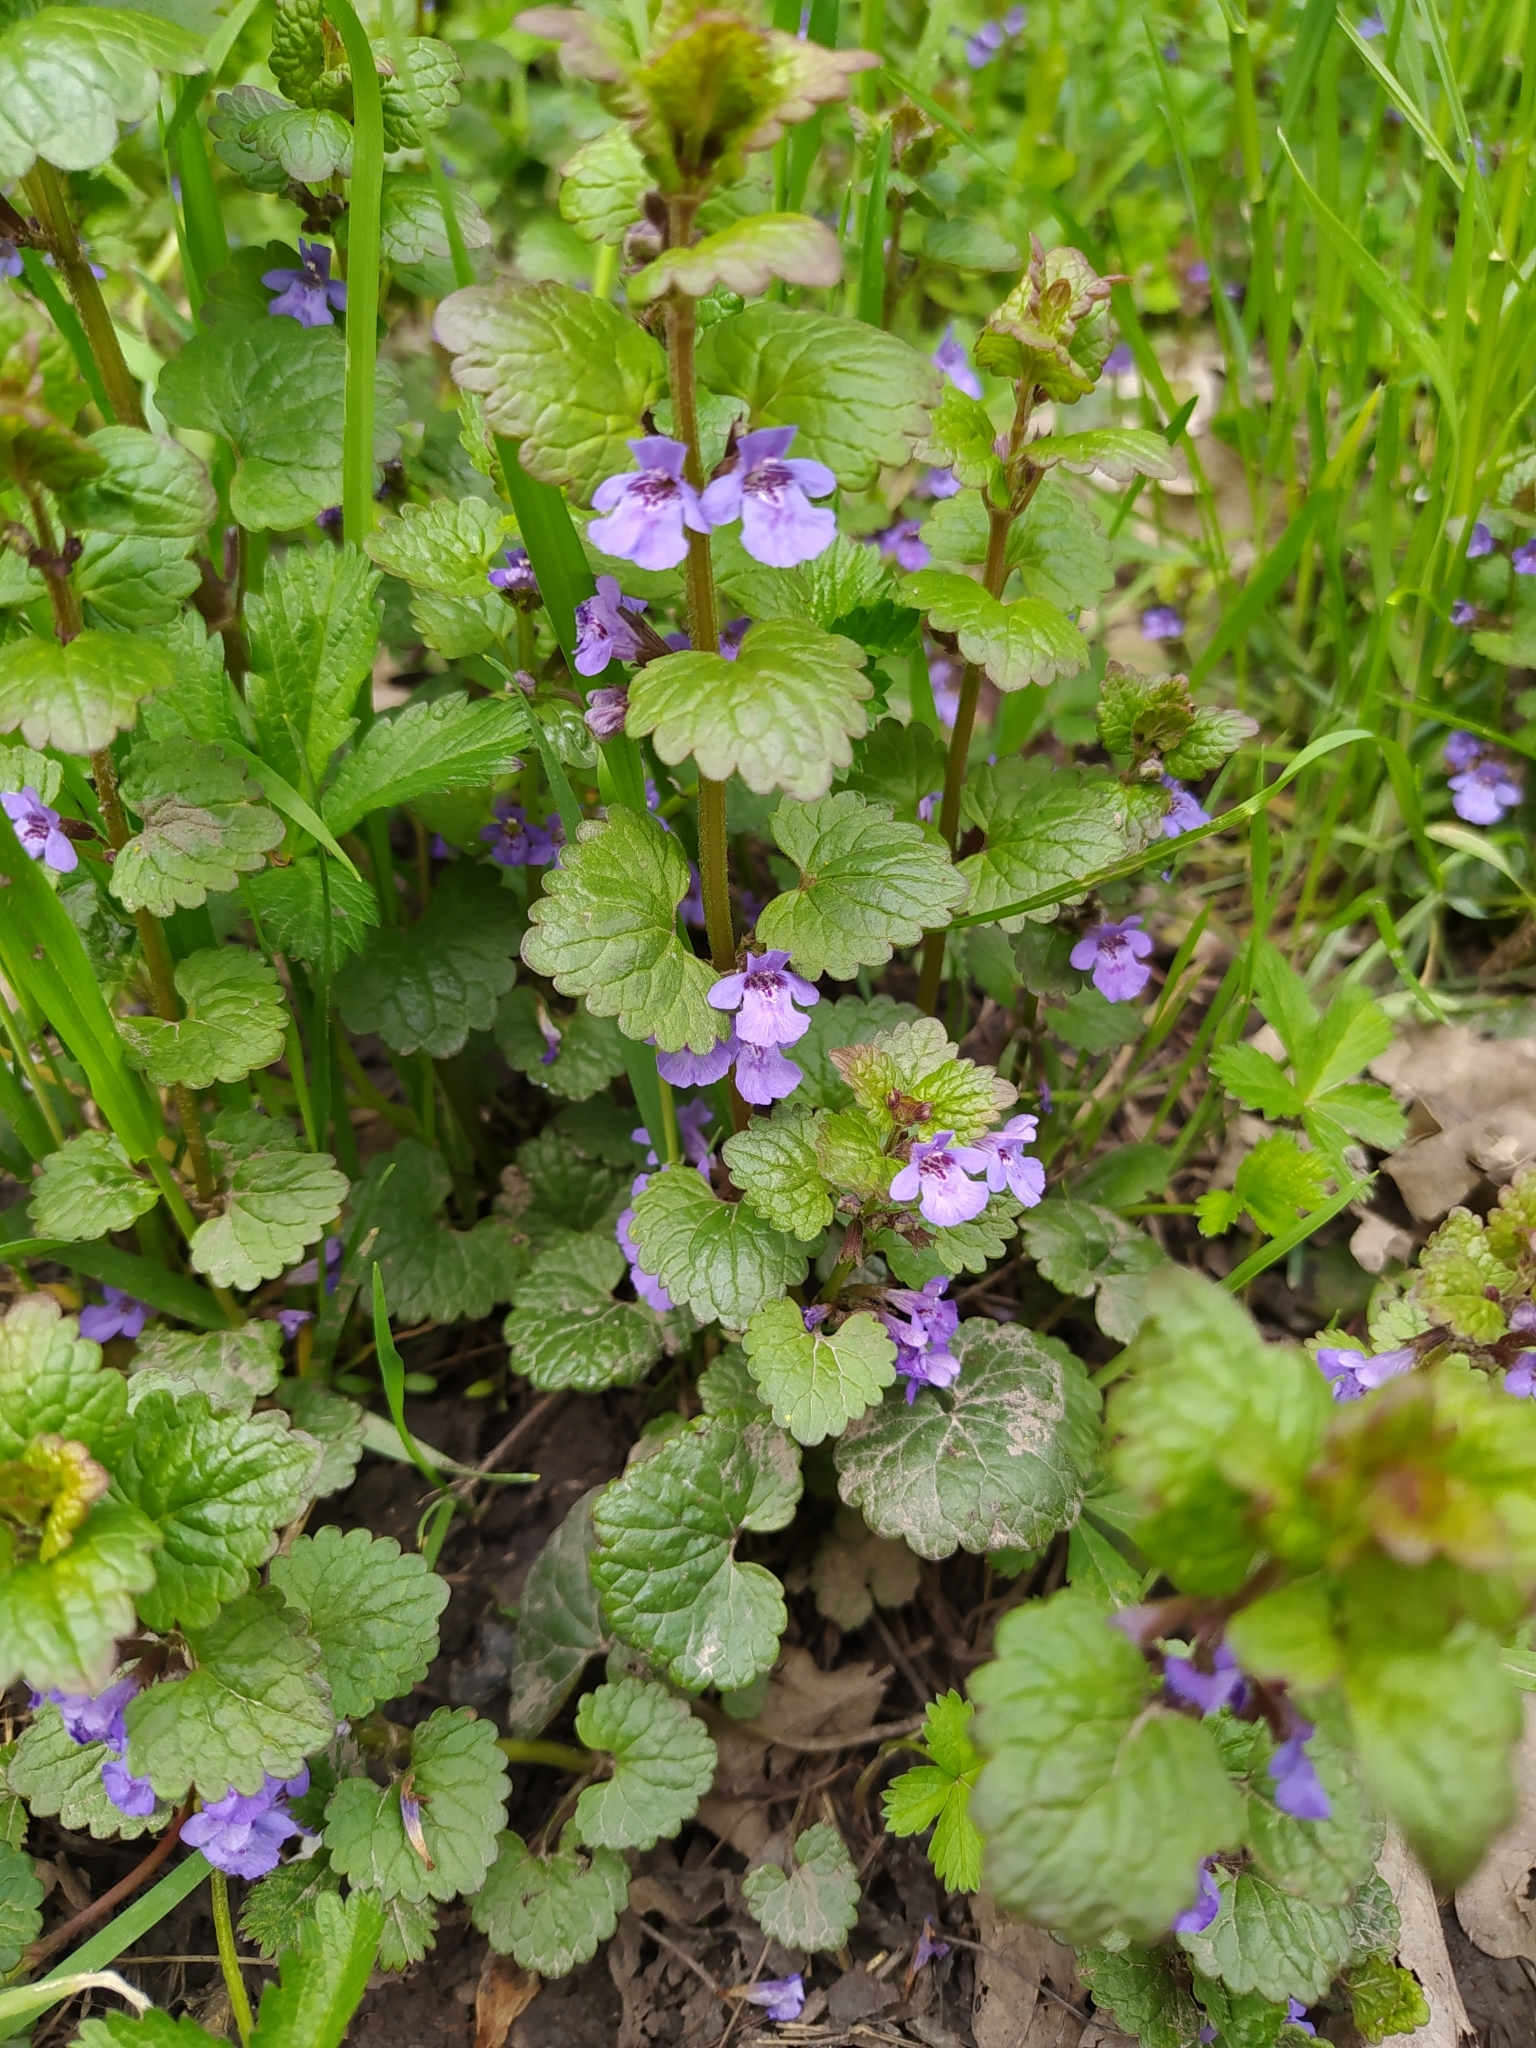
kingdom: Plantae
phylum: Tracheophyta
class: Magnoliopsida
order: Lamiales
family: Lamiaceae
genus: Glechoma
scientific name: Glechoma hederacea
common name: Ground ivy
